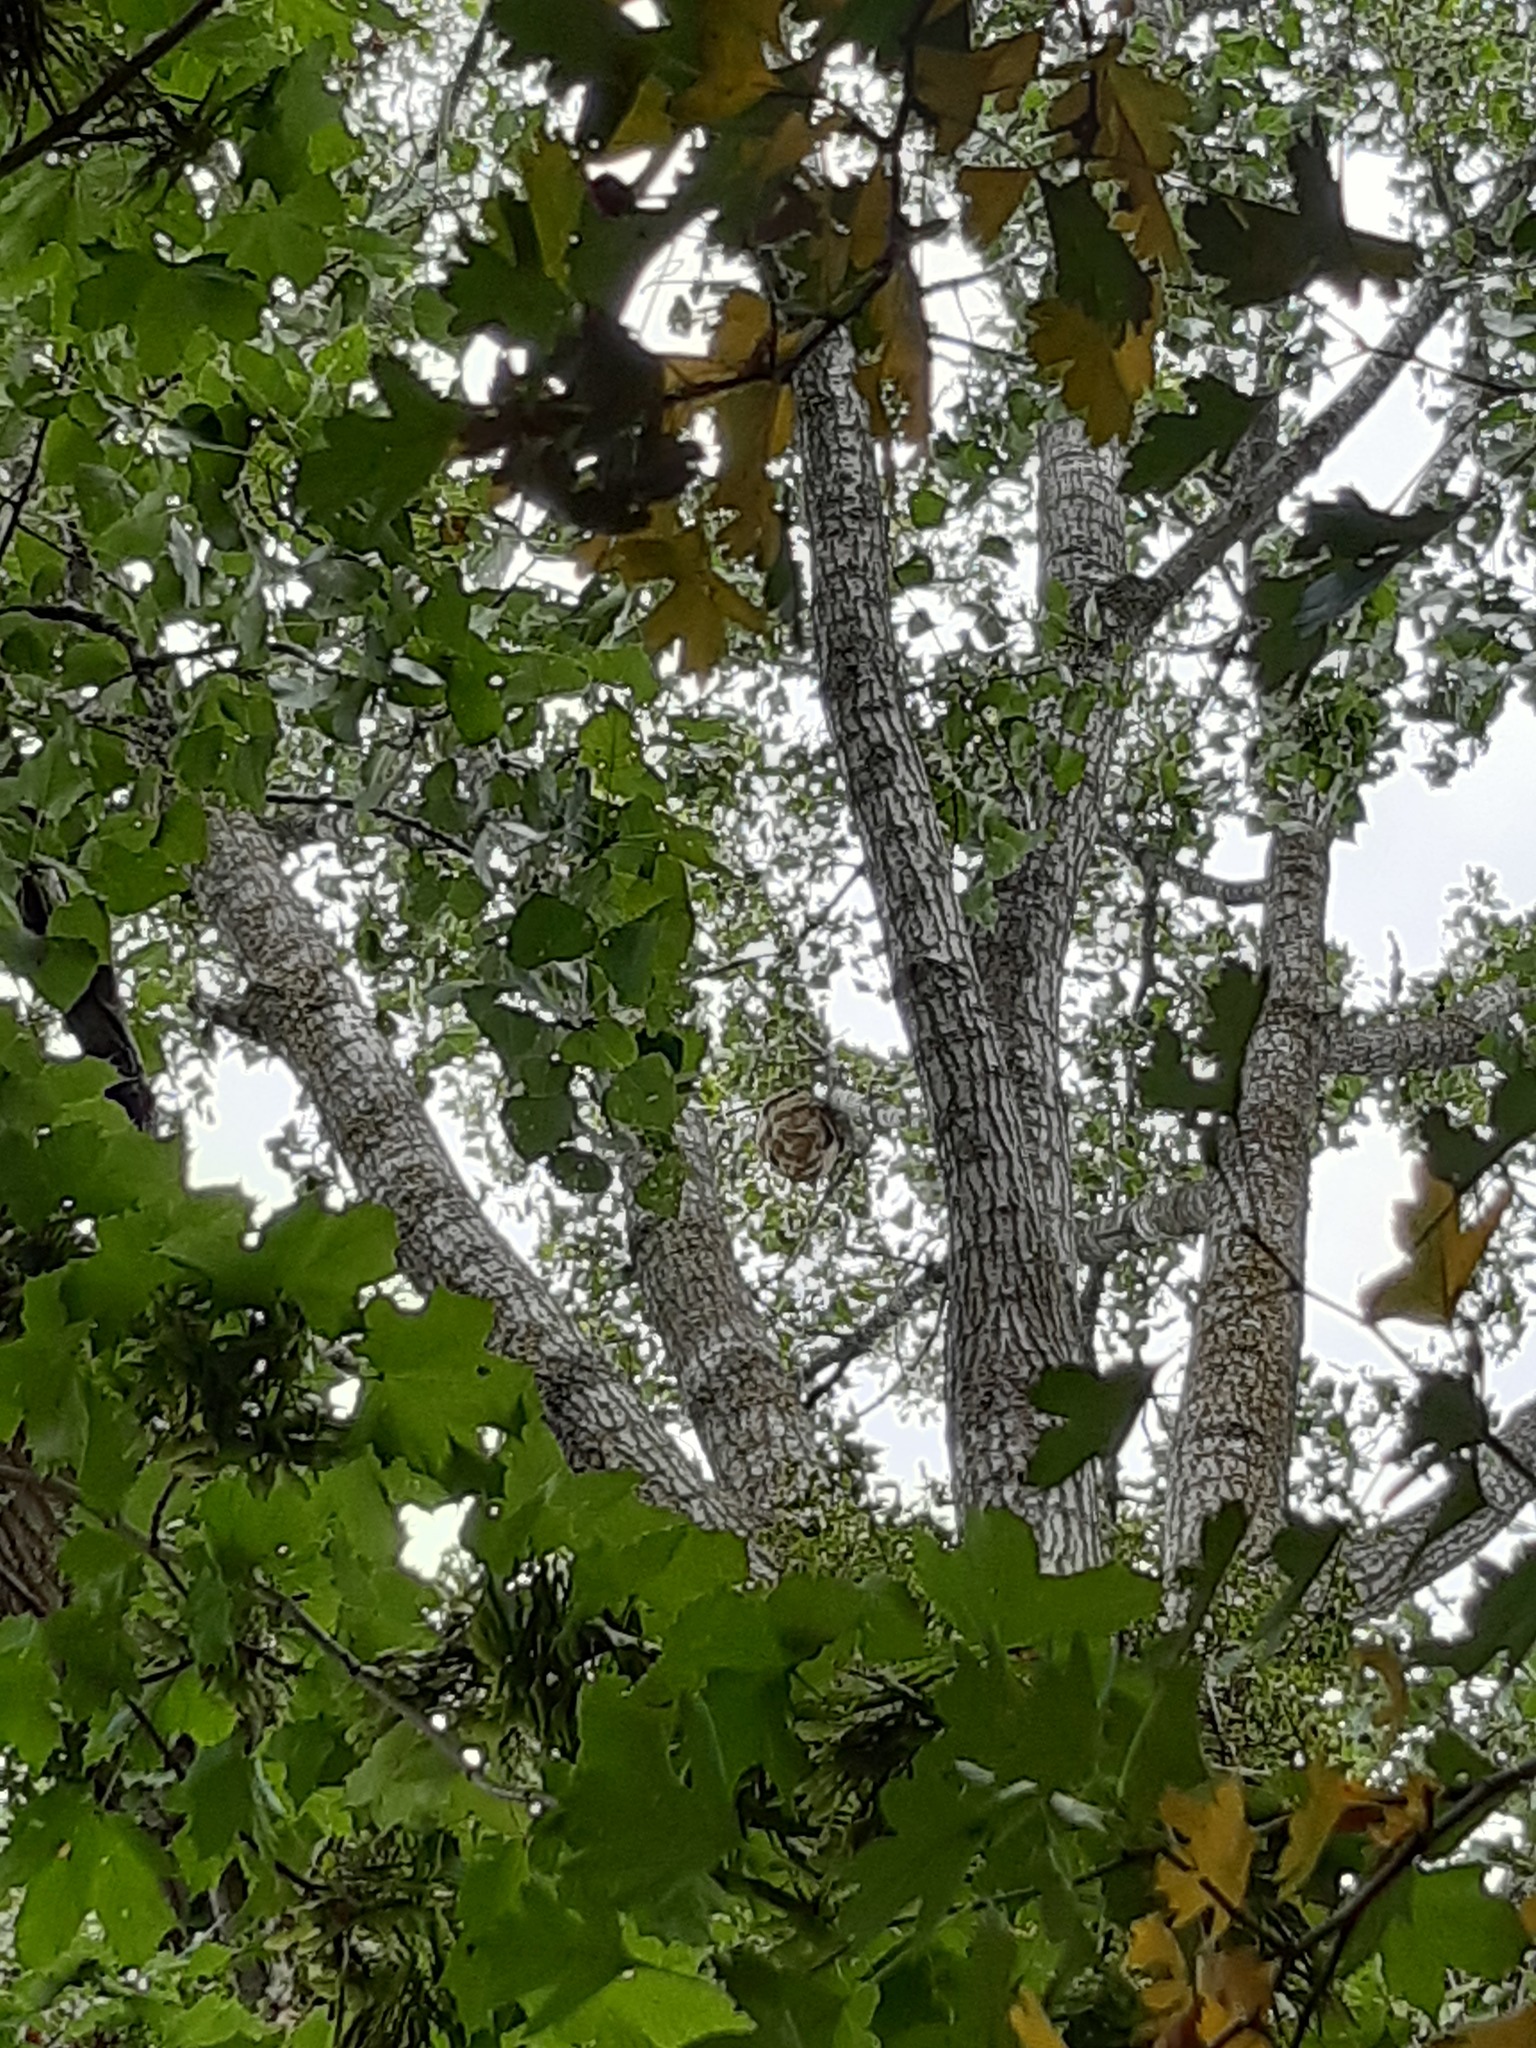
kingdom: Animalia
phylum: Arthropoda
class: Insecta
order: Hymenoptera
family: Vespidae
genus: Vespa
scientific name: Vespa velutina
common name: Asian hornet
